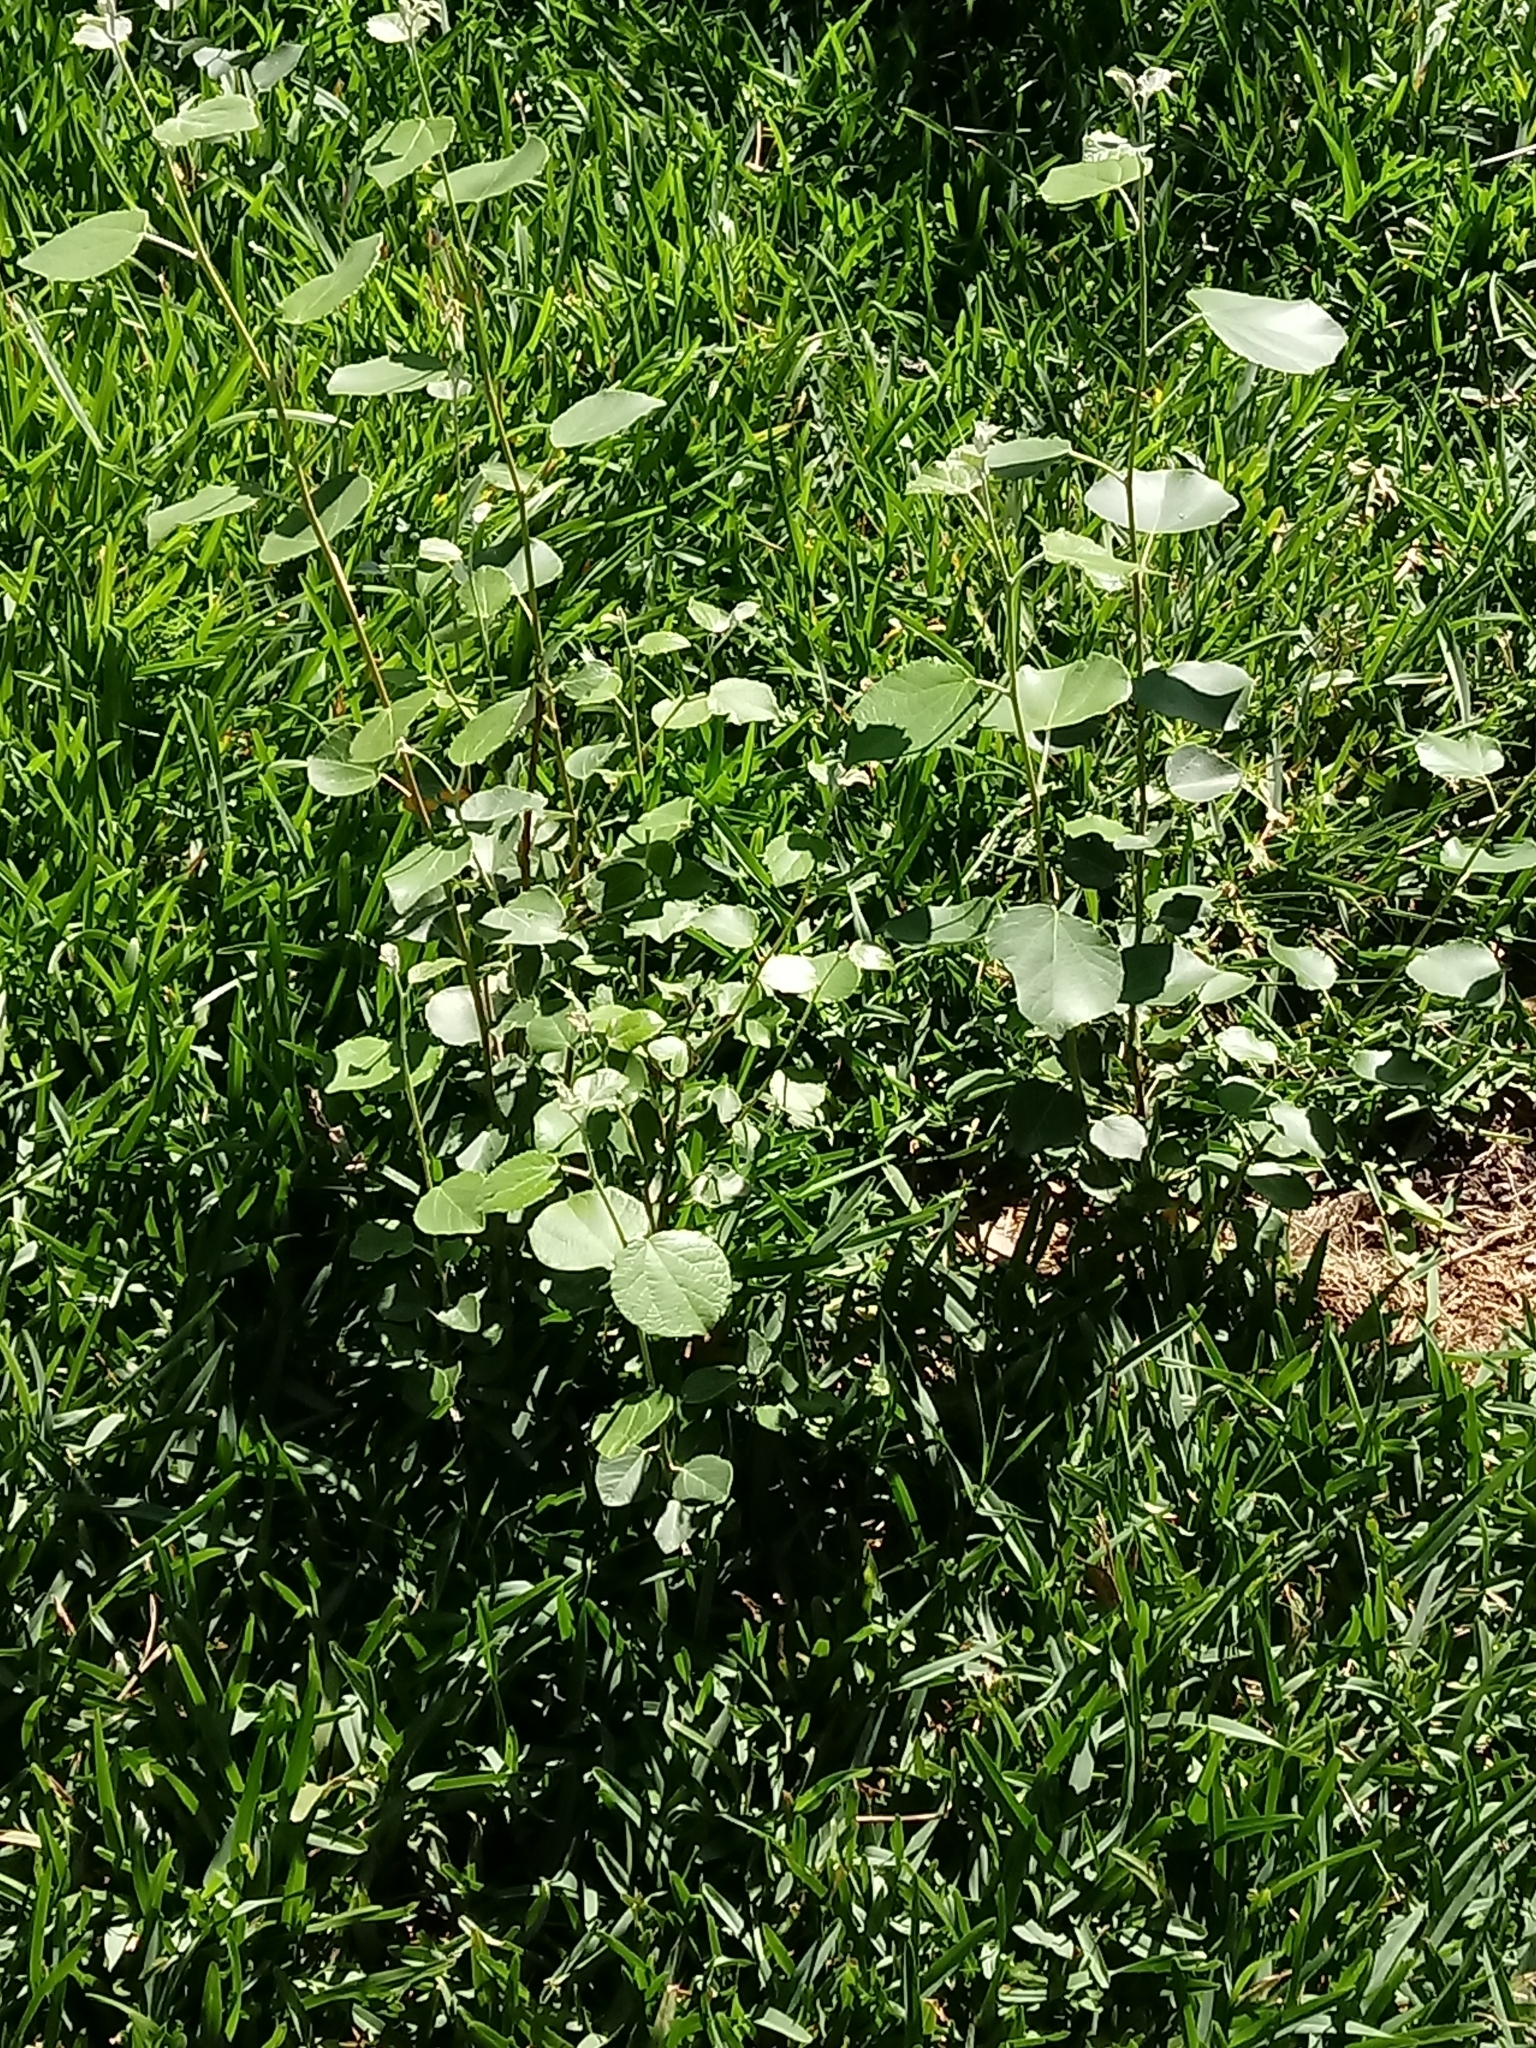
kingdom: Plantae
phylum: Tracheophyta
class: Magnoliopsida
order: Malpighiales
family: Salicaceae
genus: Populus
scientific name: Populus alba
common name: White poplar
